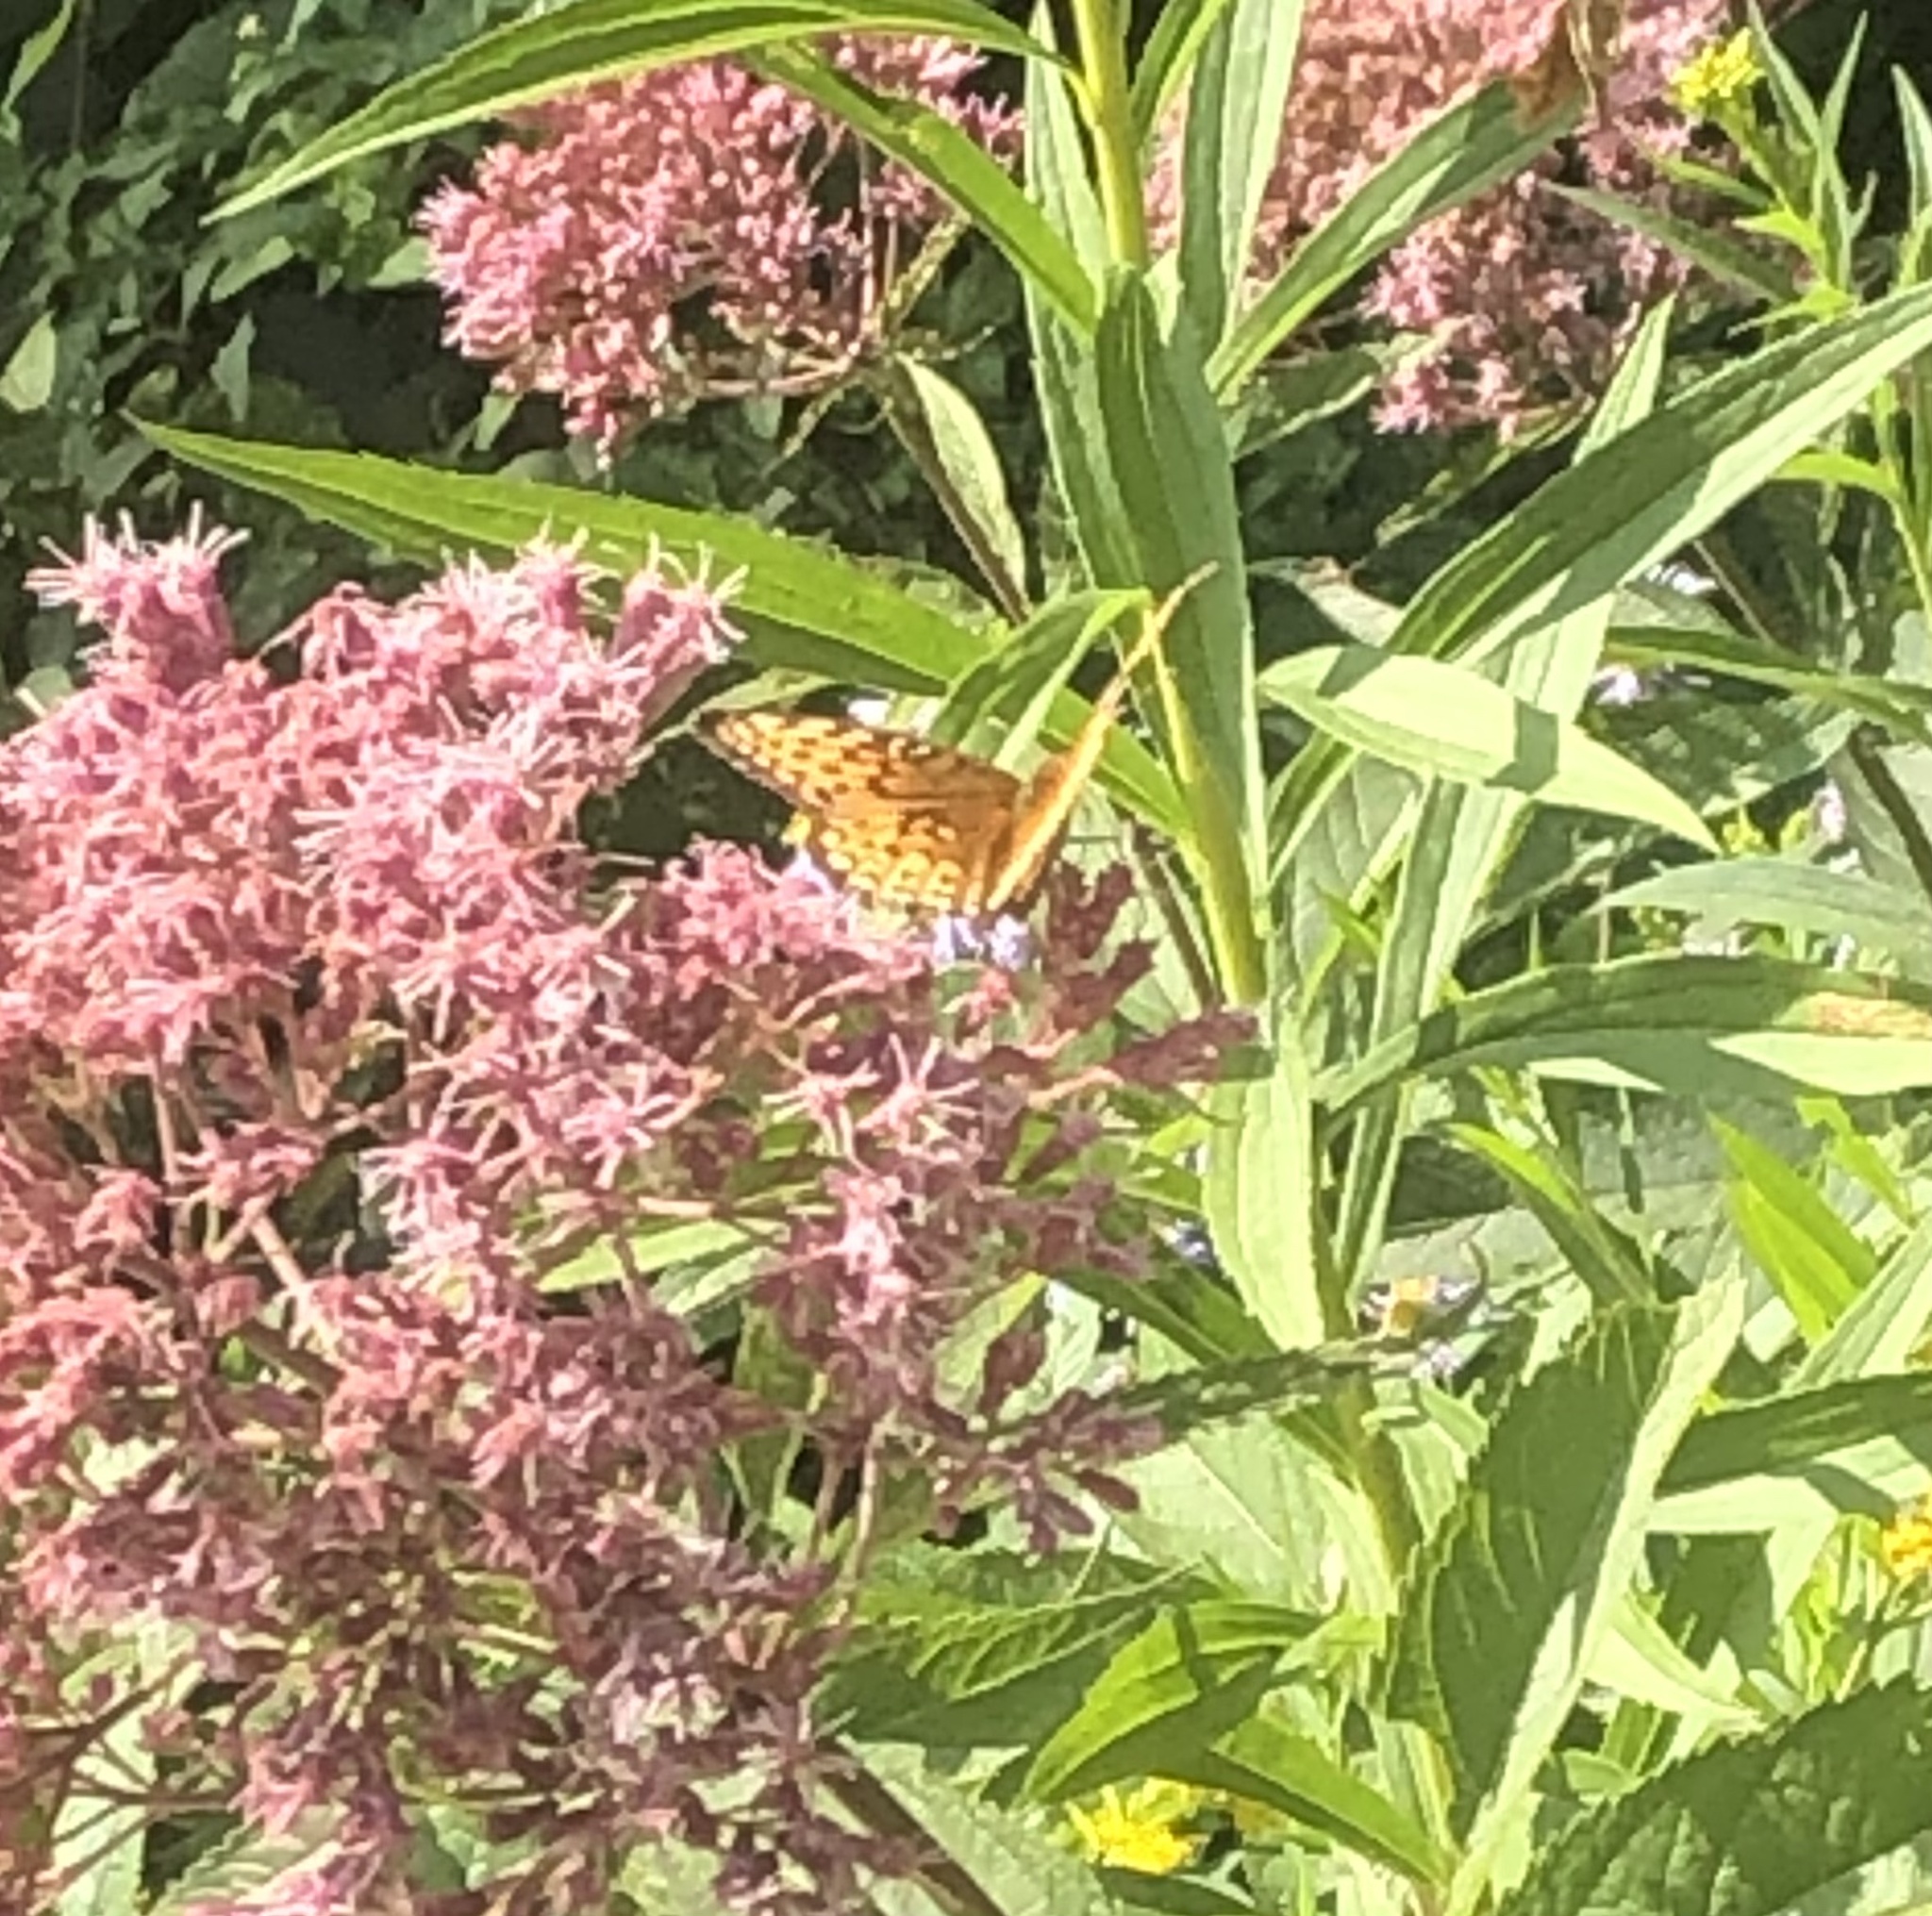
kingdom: Animalia
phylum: Arthropoda
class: Insecta
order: Lepidoptera
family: Nymphalidae
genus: Speyeria
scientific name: Speyeria atlantis
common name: Atlantis fritillary
